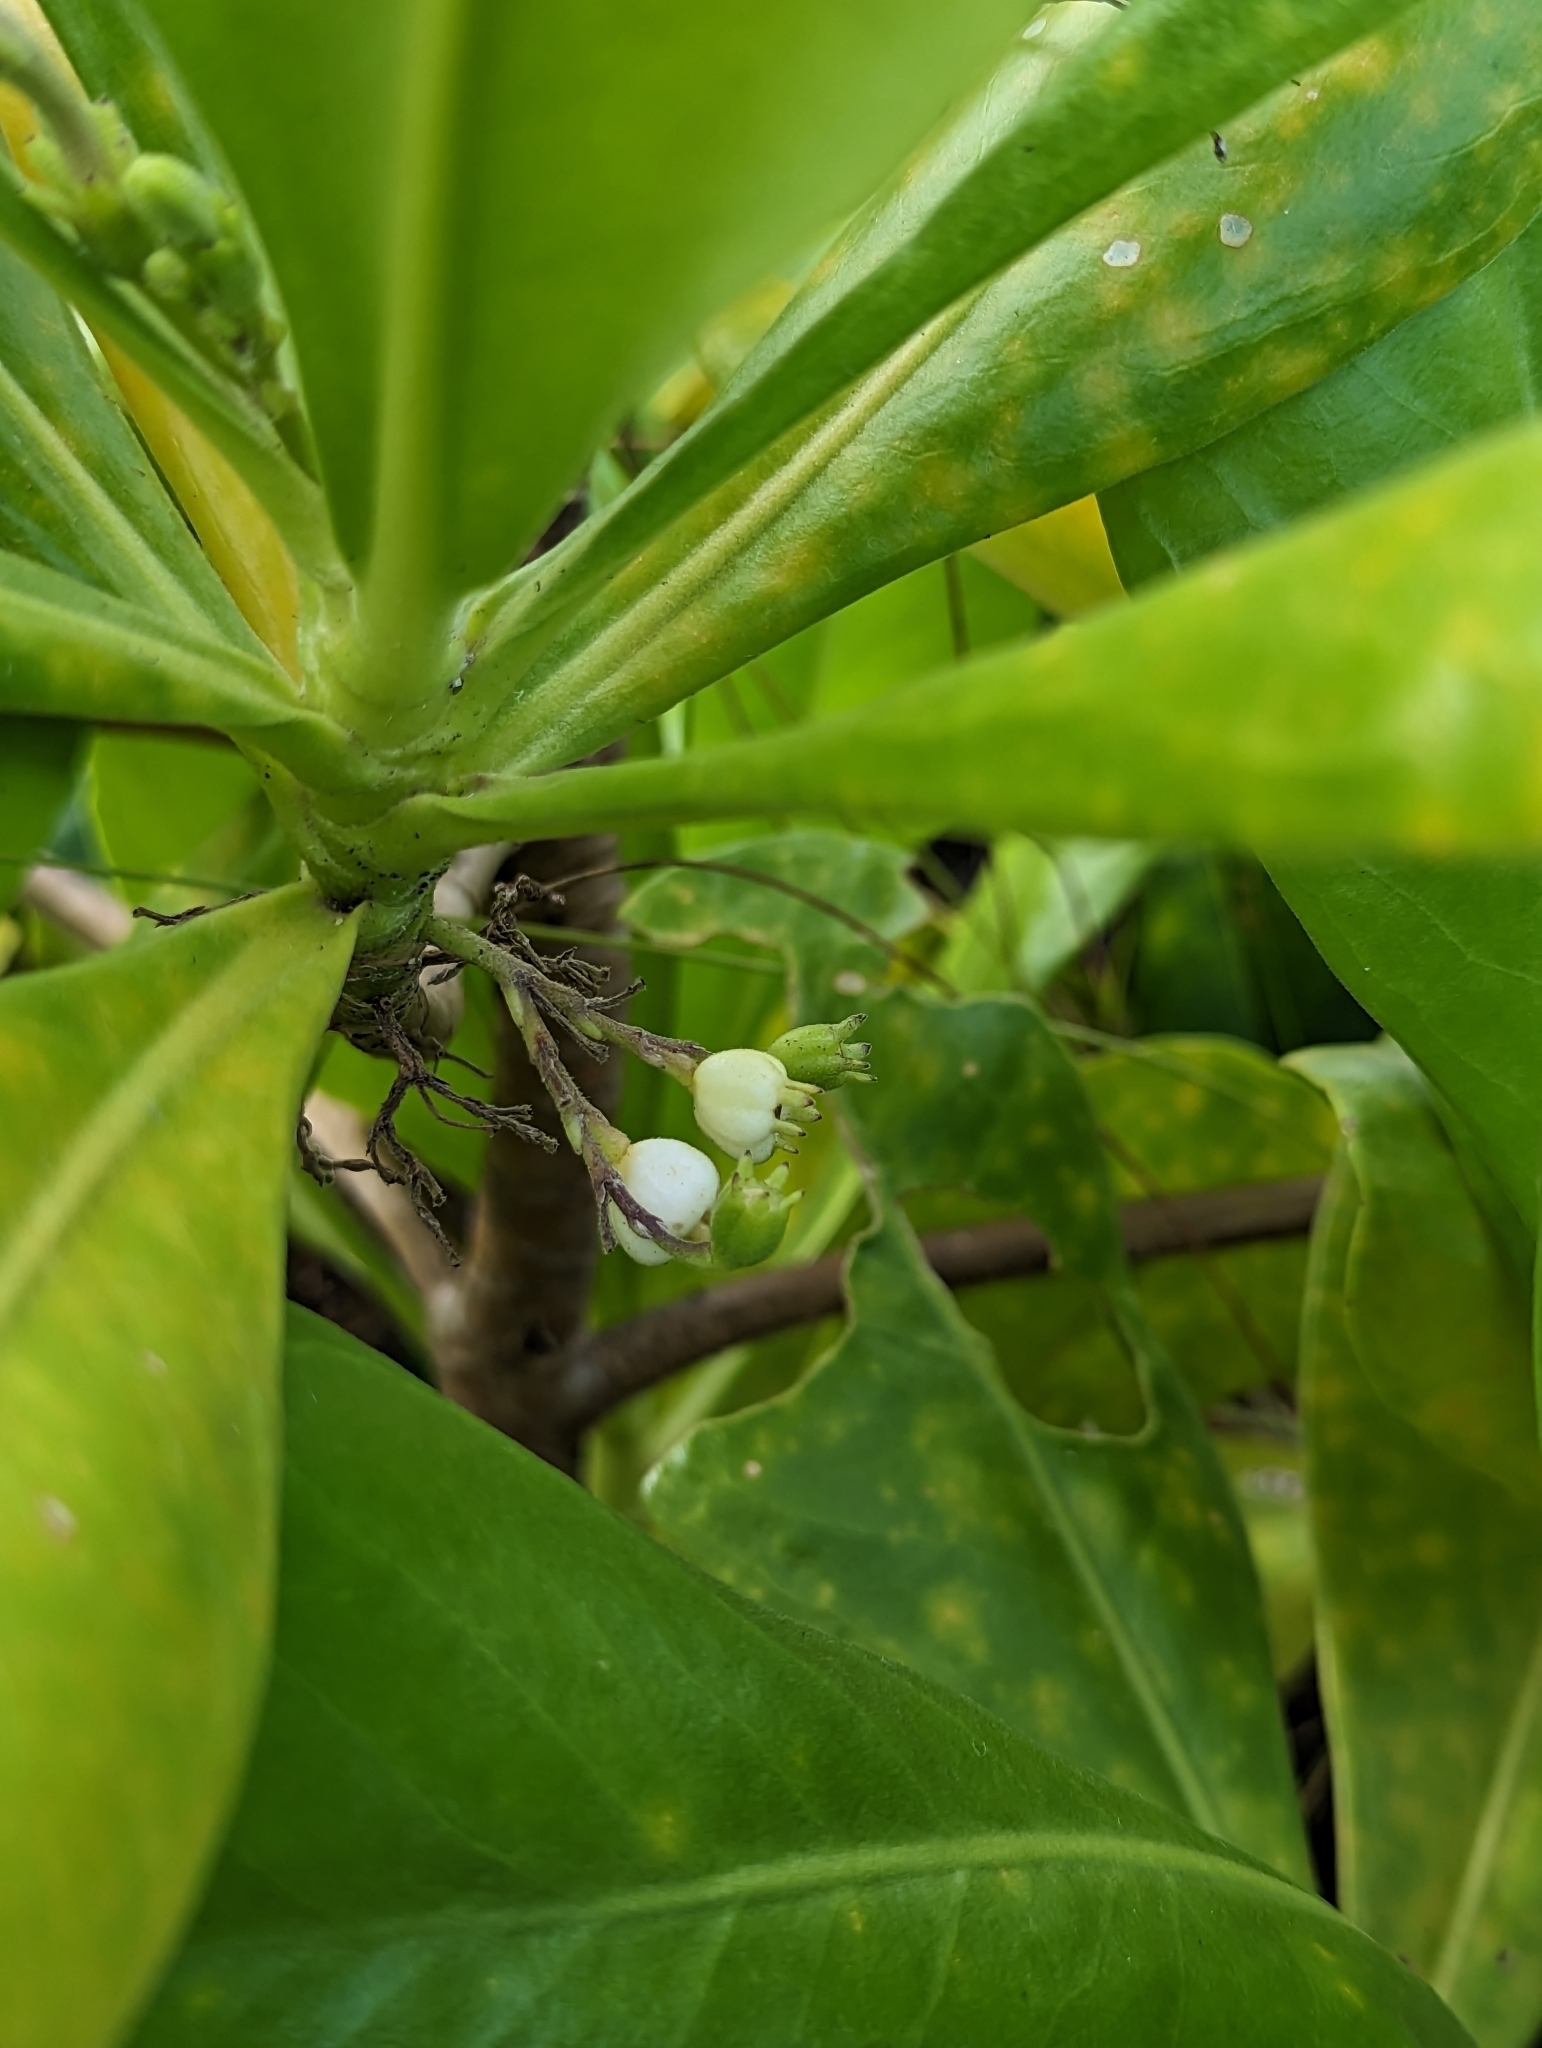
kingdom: Plantae
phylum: Tracheophyta
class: Magnoliopsida
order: Asterales
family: Goodeniaceae
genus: Scaevola
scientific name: Scaevola taccada
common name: Sea lettucetree
